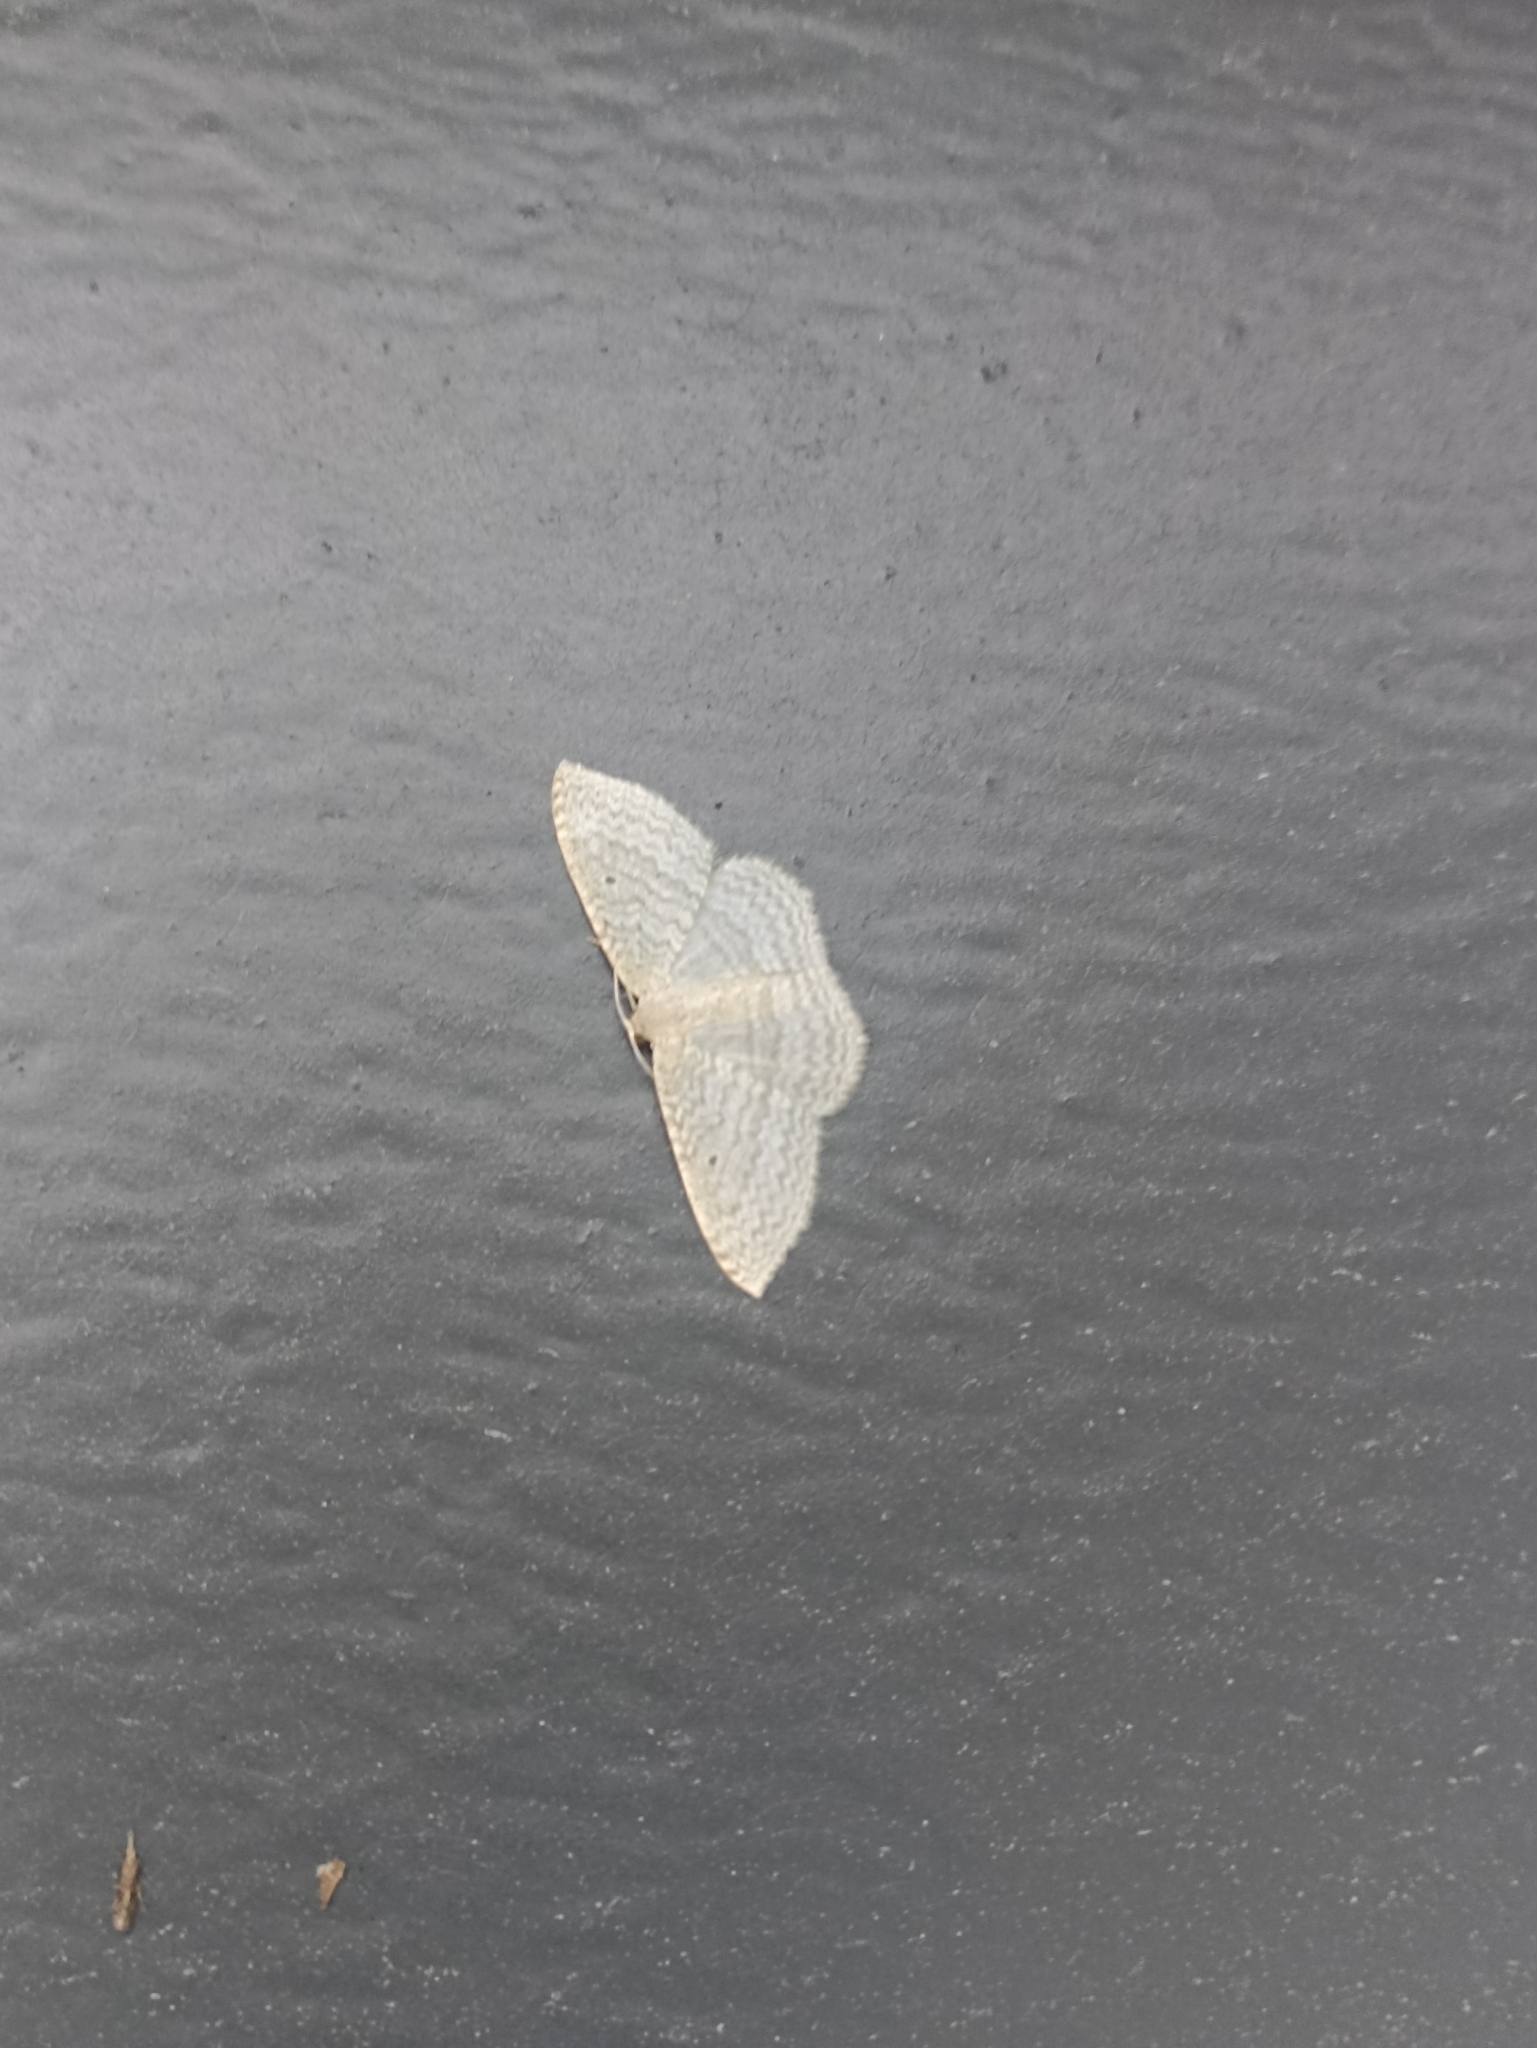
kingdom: Animalia
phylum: Arthropoda
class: Insecta
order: Lepidoptera
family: Geometridae
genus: Poecilasthena
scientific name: Poecilasthena pulchraria
